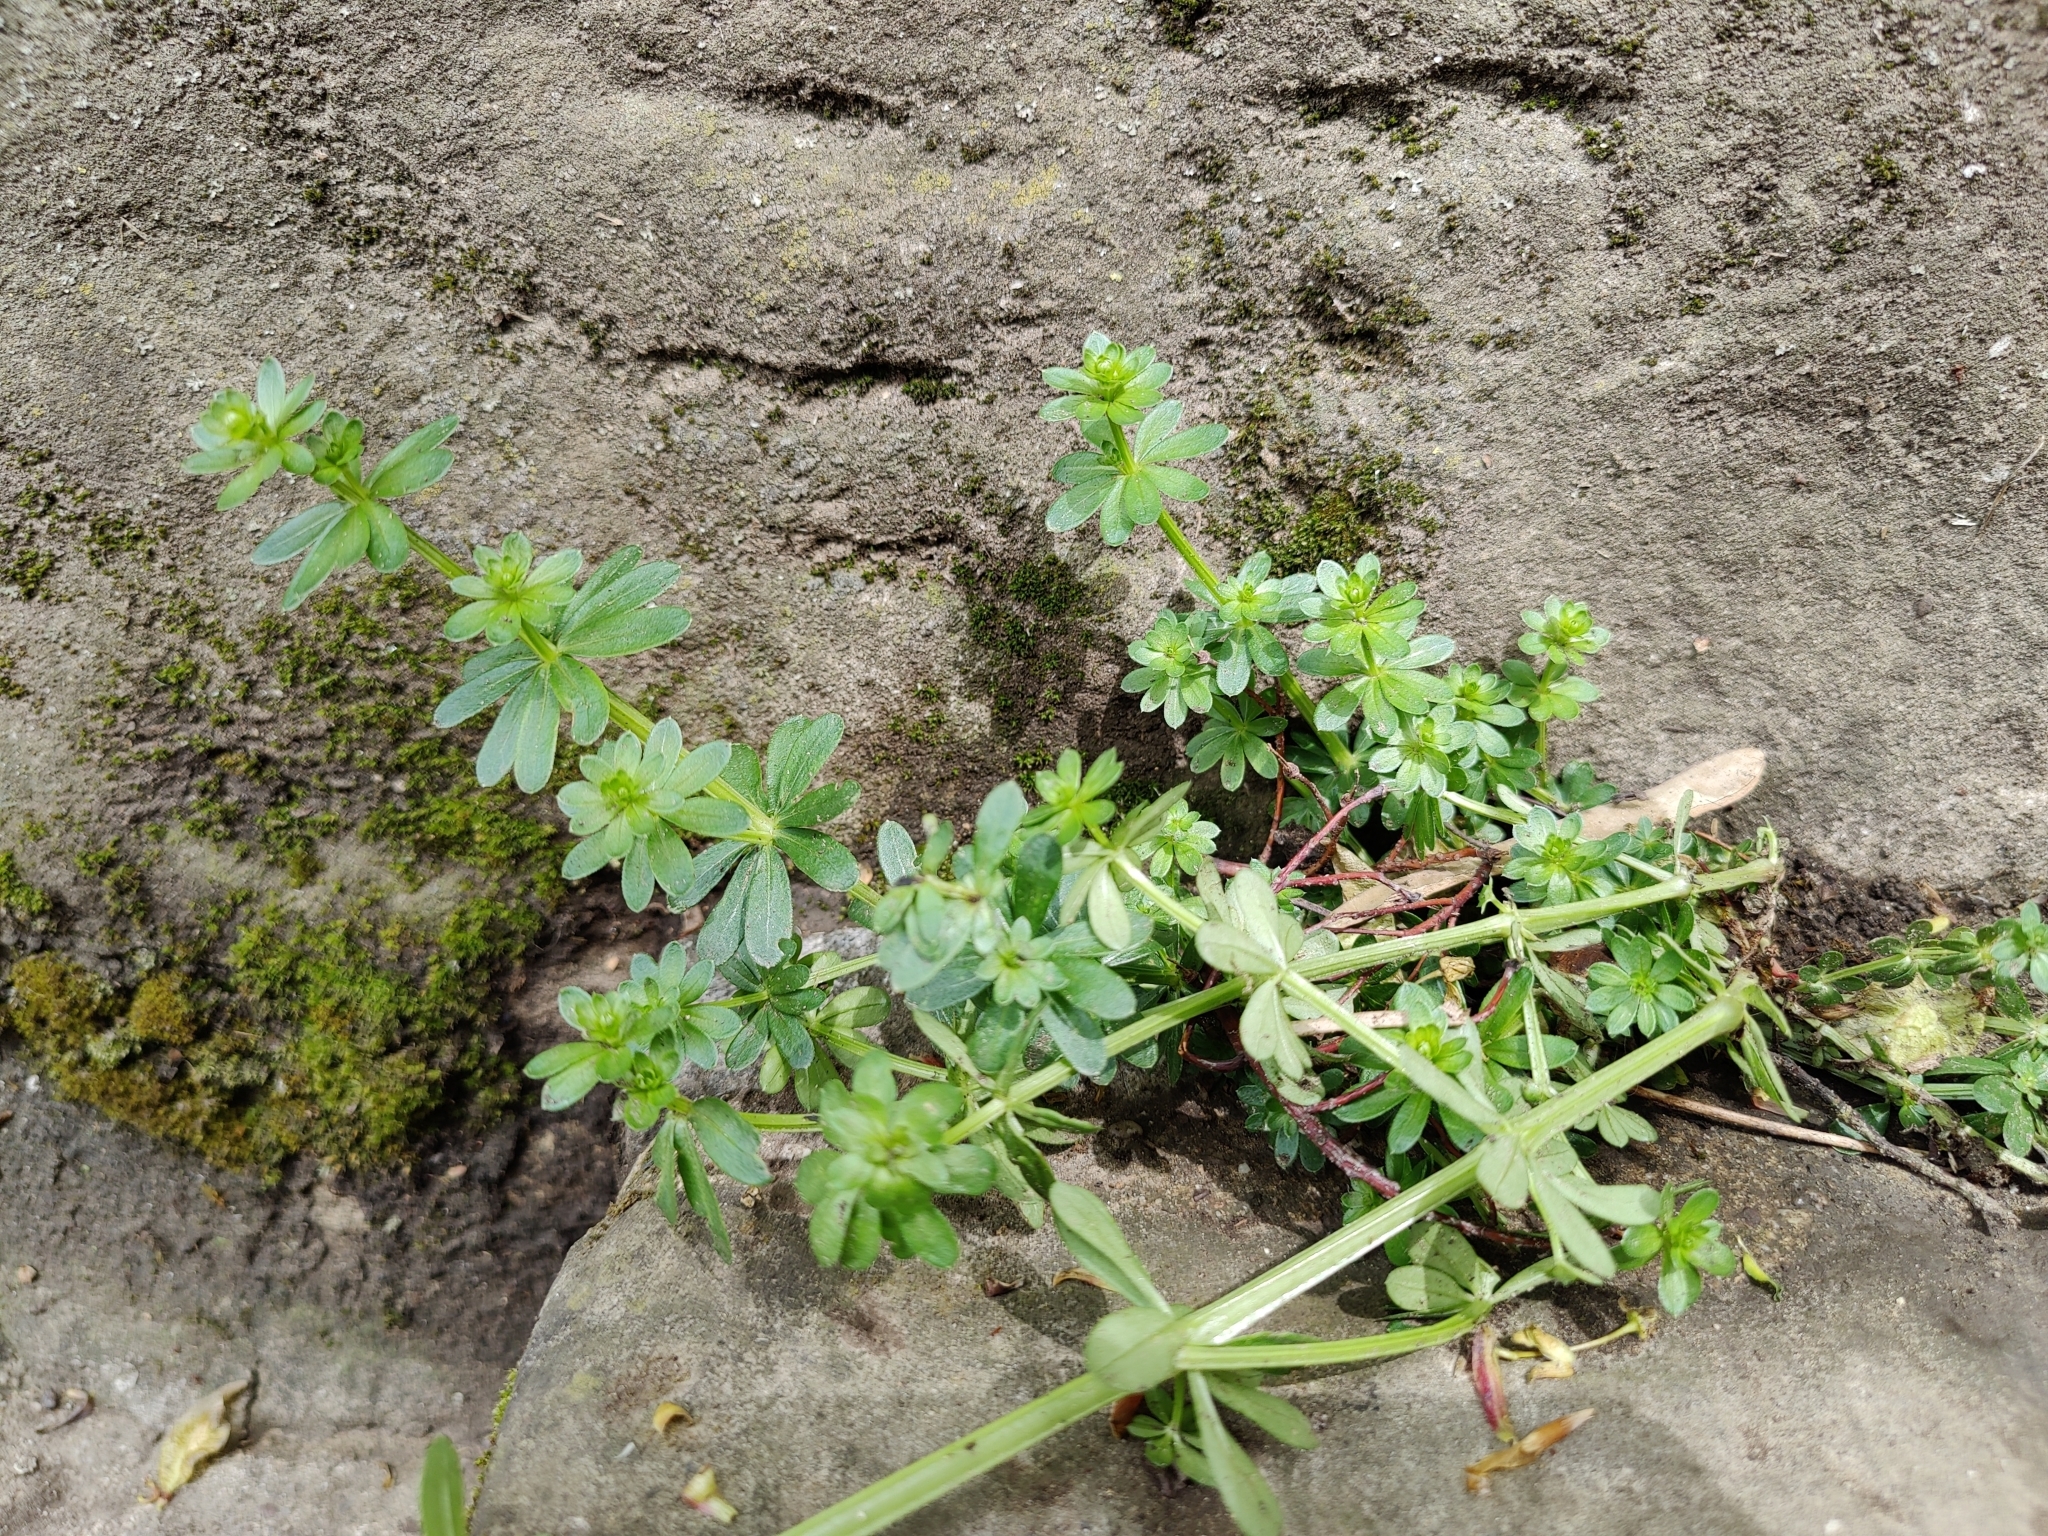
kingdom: Plantae
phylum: Tracheophyta
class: Magnoliopsida
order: Gentianales
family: Rubiaceae
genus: Galium
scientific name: Galium mollugo
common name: Hedge bedstraw
